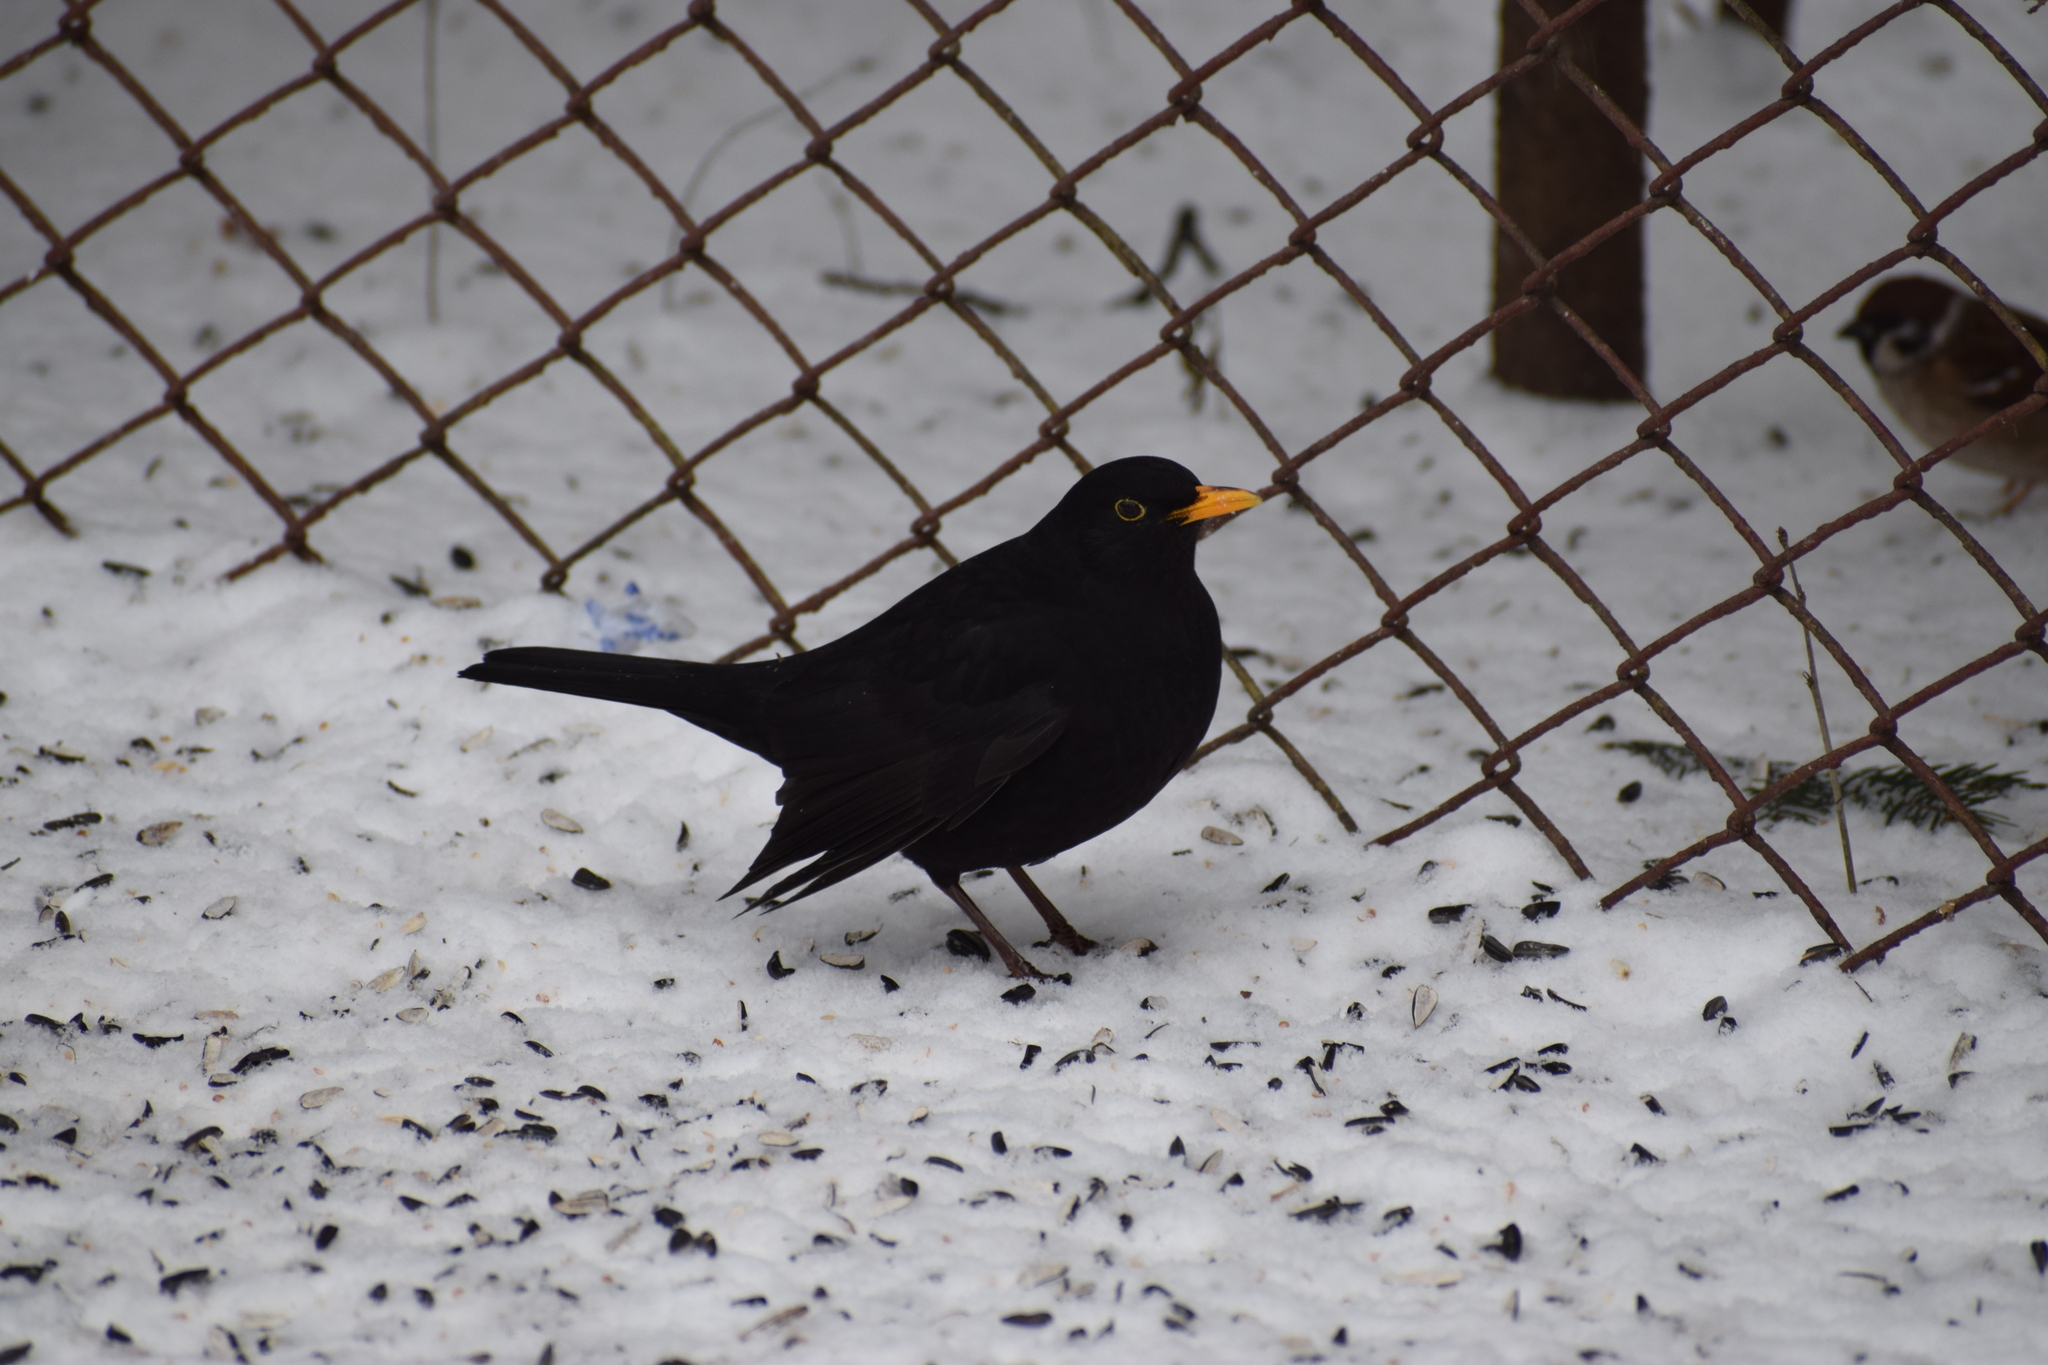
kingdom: Animalia
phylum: Chordata
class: Aves
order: Passeriformes
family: Turdidae
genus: Turdus
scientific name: Turdus merula
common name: Common blackbird
